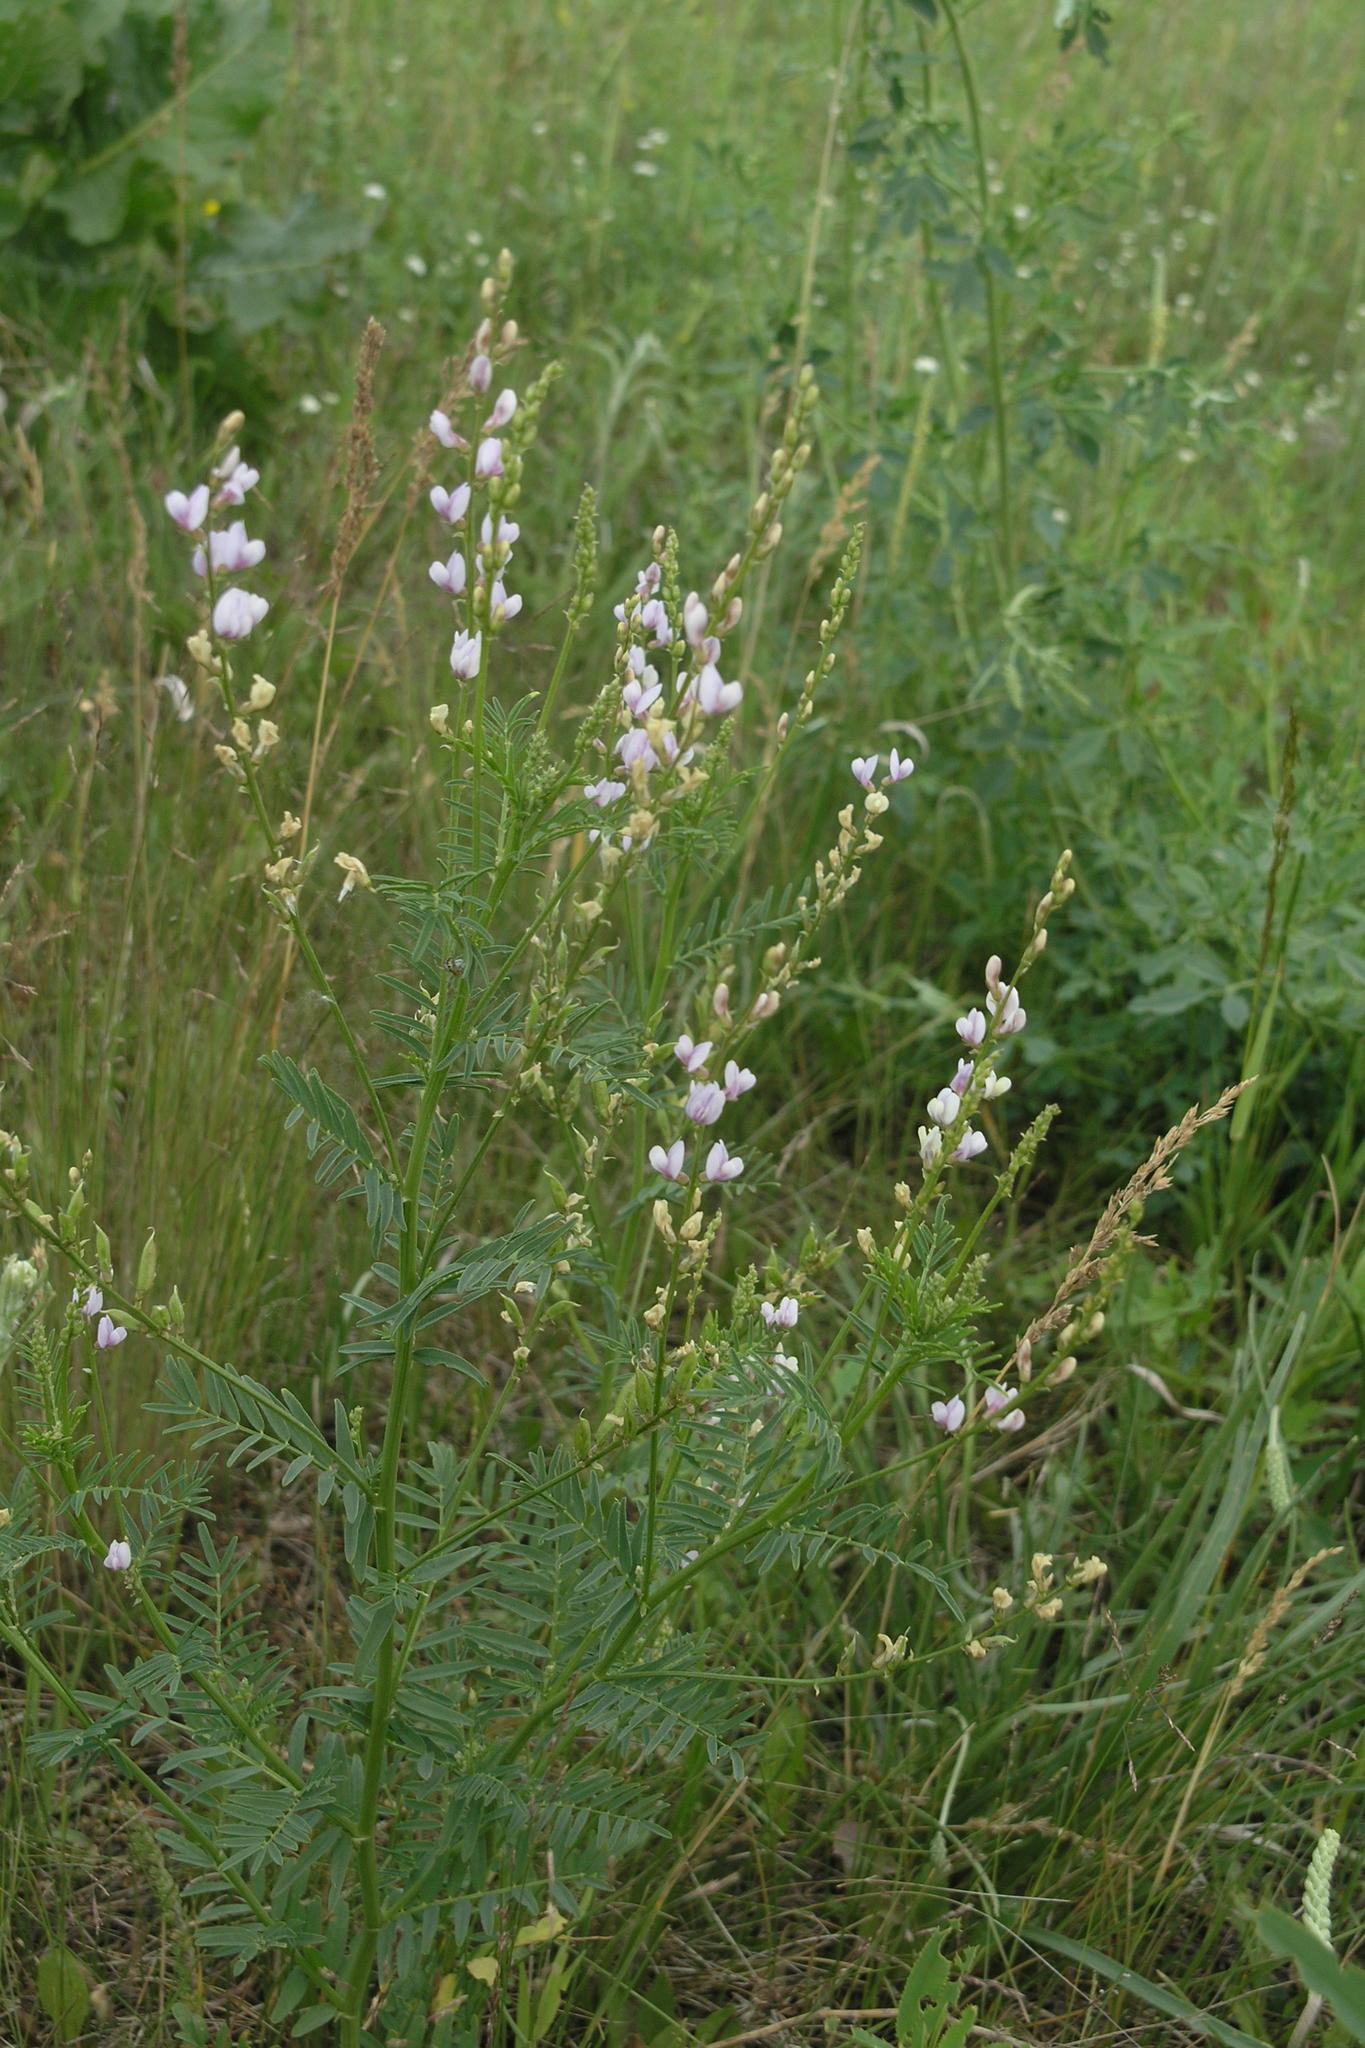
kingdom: Plantae
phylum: Tracheophyta
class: Magnoliopsida
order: Fabales
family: Fabaceae
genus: Astragalus
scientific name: Astragalus sulcatus
